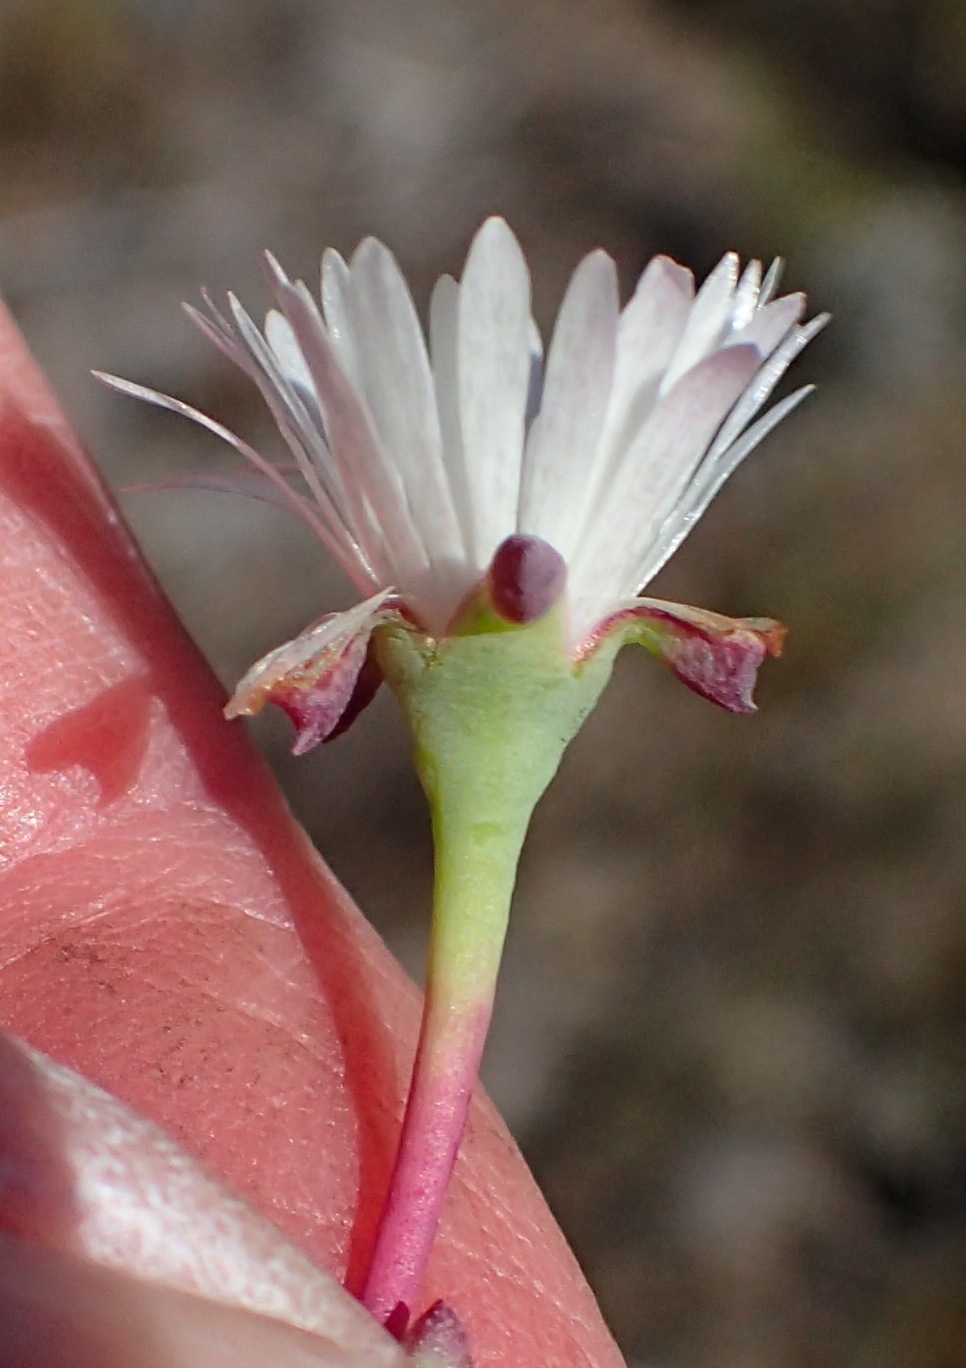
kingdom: Plantae
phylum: Tracheophyta
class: Magnoliopsida
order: Caryophyllales
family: Aizoaceae
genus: Lampranthus
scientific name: Lampranthus swartbergensis
